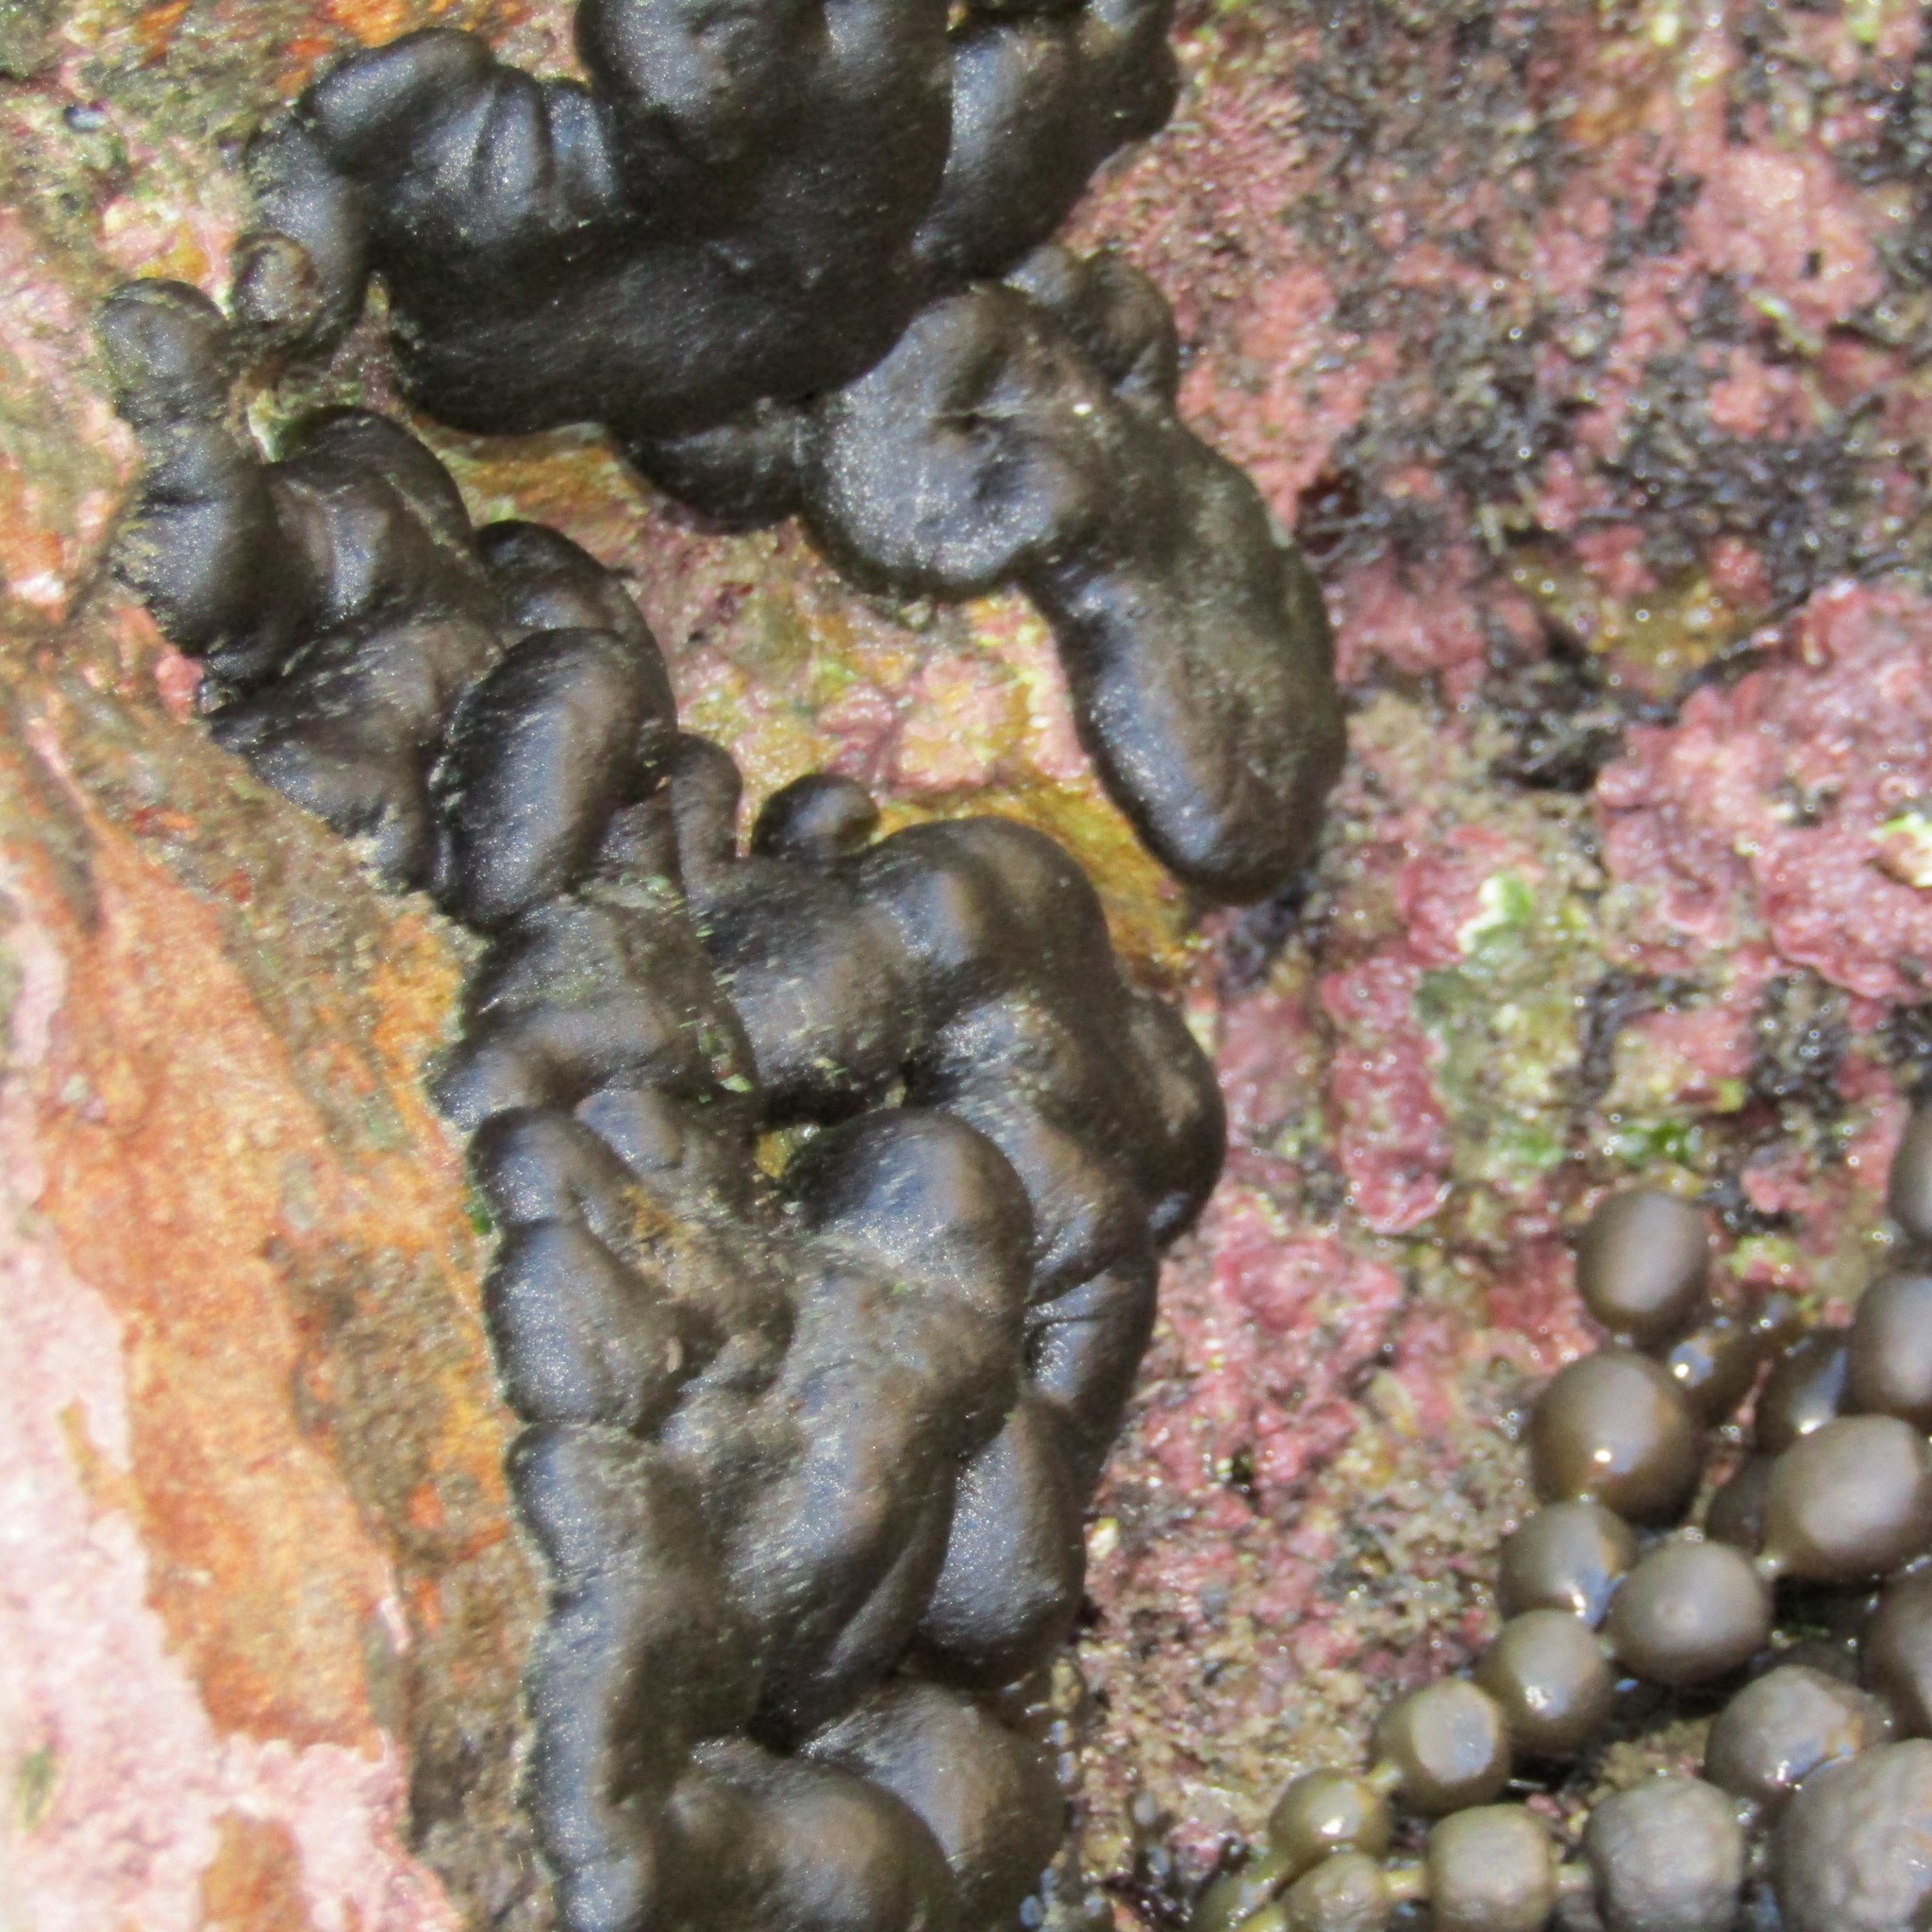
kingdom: Plantae
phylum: Chlorophyta
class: Ulvophyceae
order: Bryopsidales
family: Codiaceae
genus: Codium
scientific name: Codium convolutum
